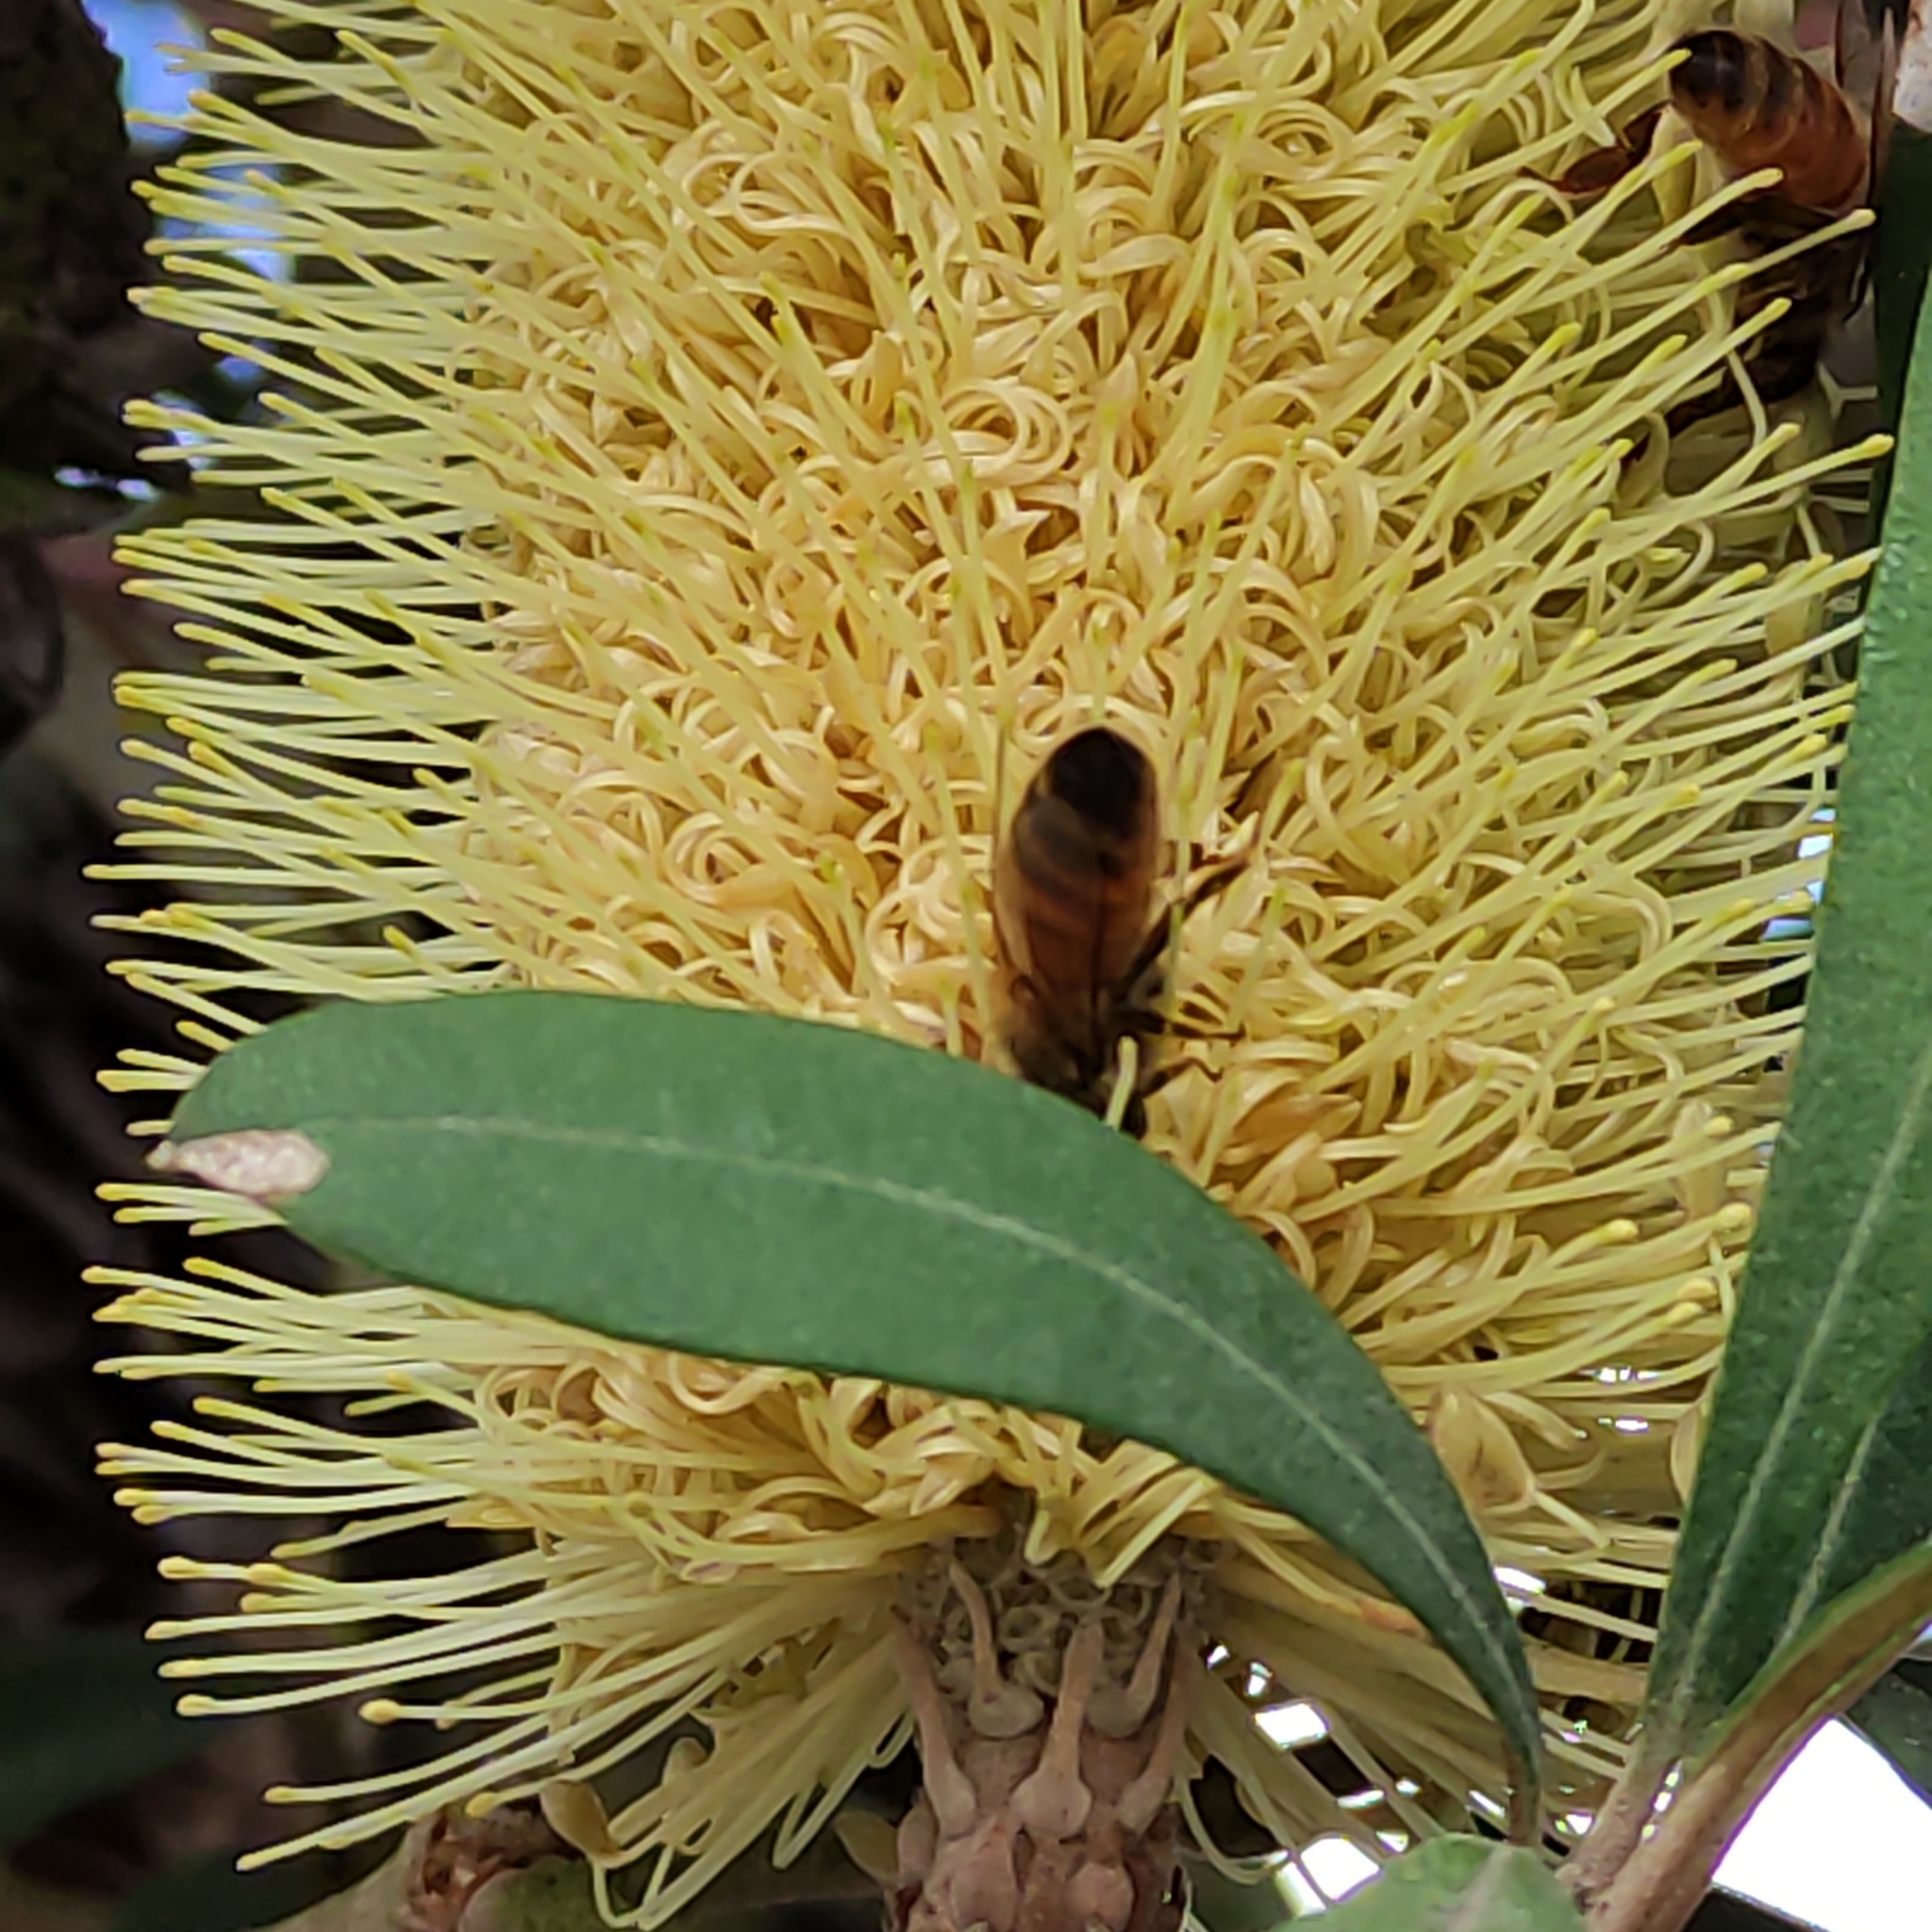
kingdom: Animalia
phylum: Arthropoda
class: Insecta
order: Hymenoptera
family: Apidae
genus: Apis
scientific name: Apis mellifera
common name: Honey bee
